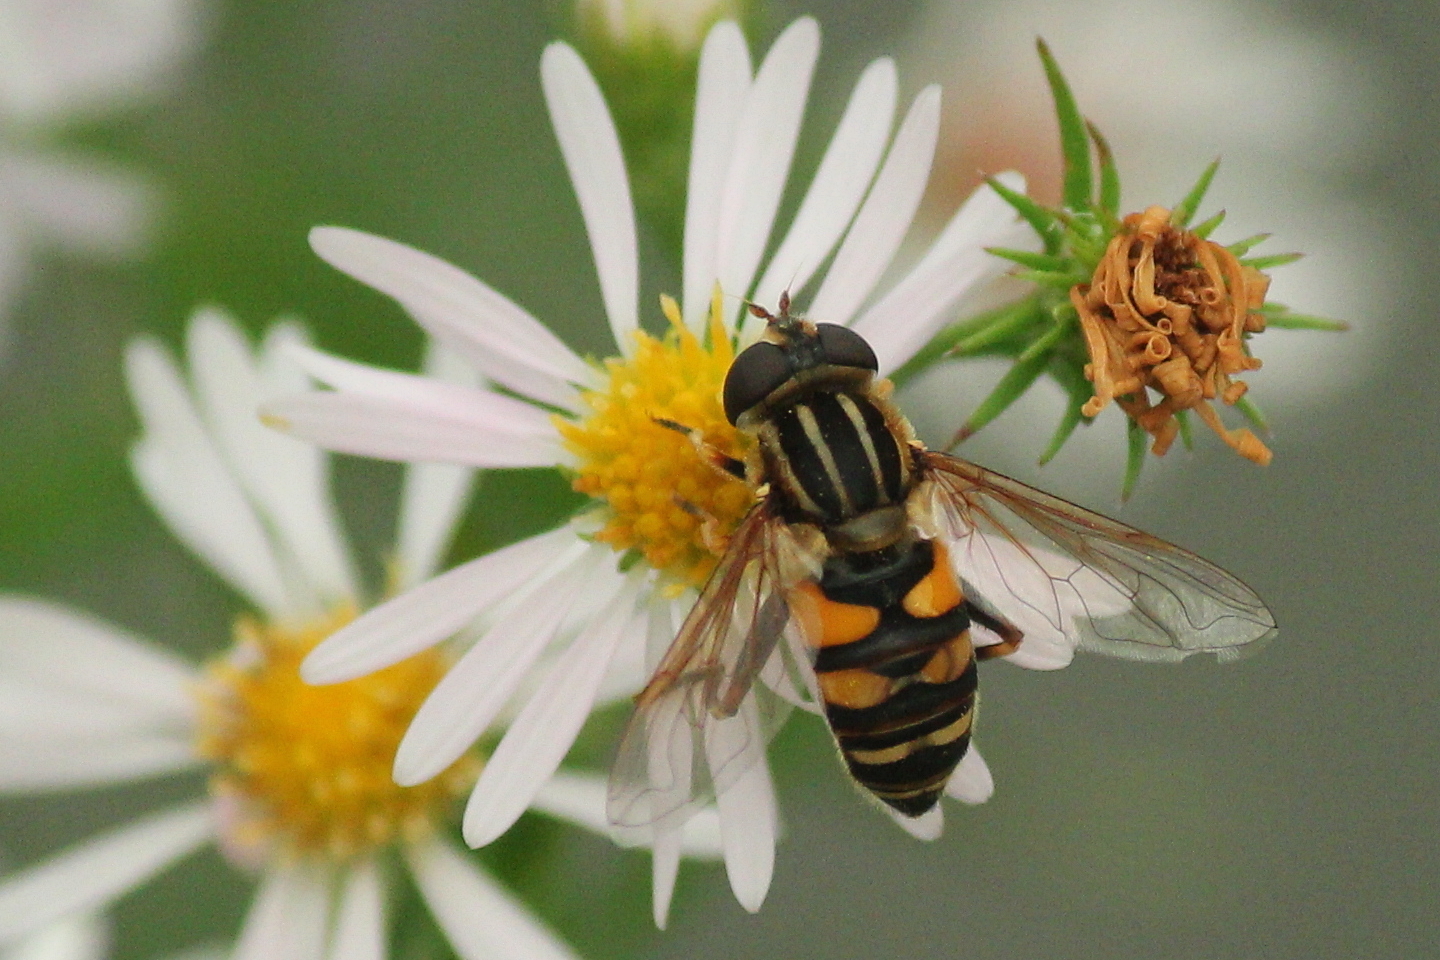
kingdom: Animalia
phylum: Arthropoda
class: Insecta
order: Diptera
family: Syrphidae
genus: Helophilus
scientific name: Helophilus fasciatus
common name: Narrow-headed marsh fly
